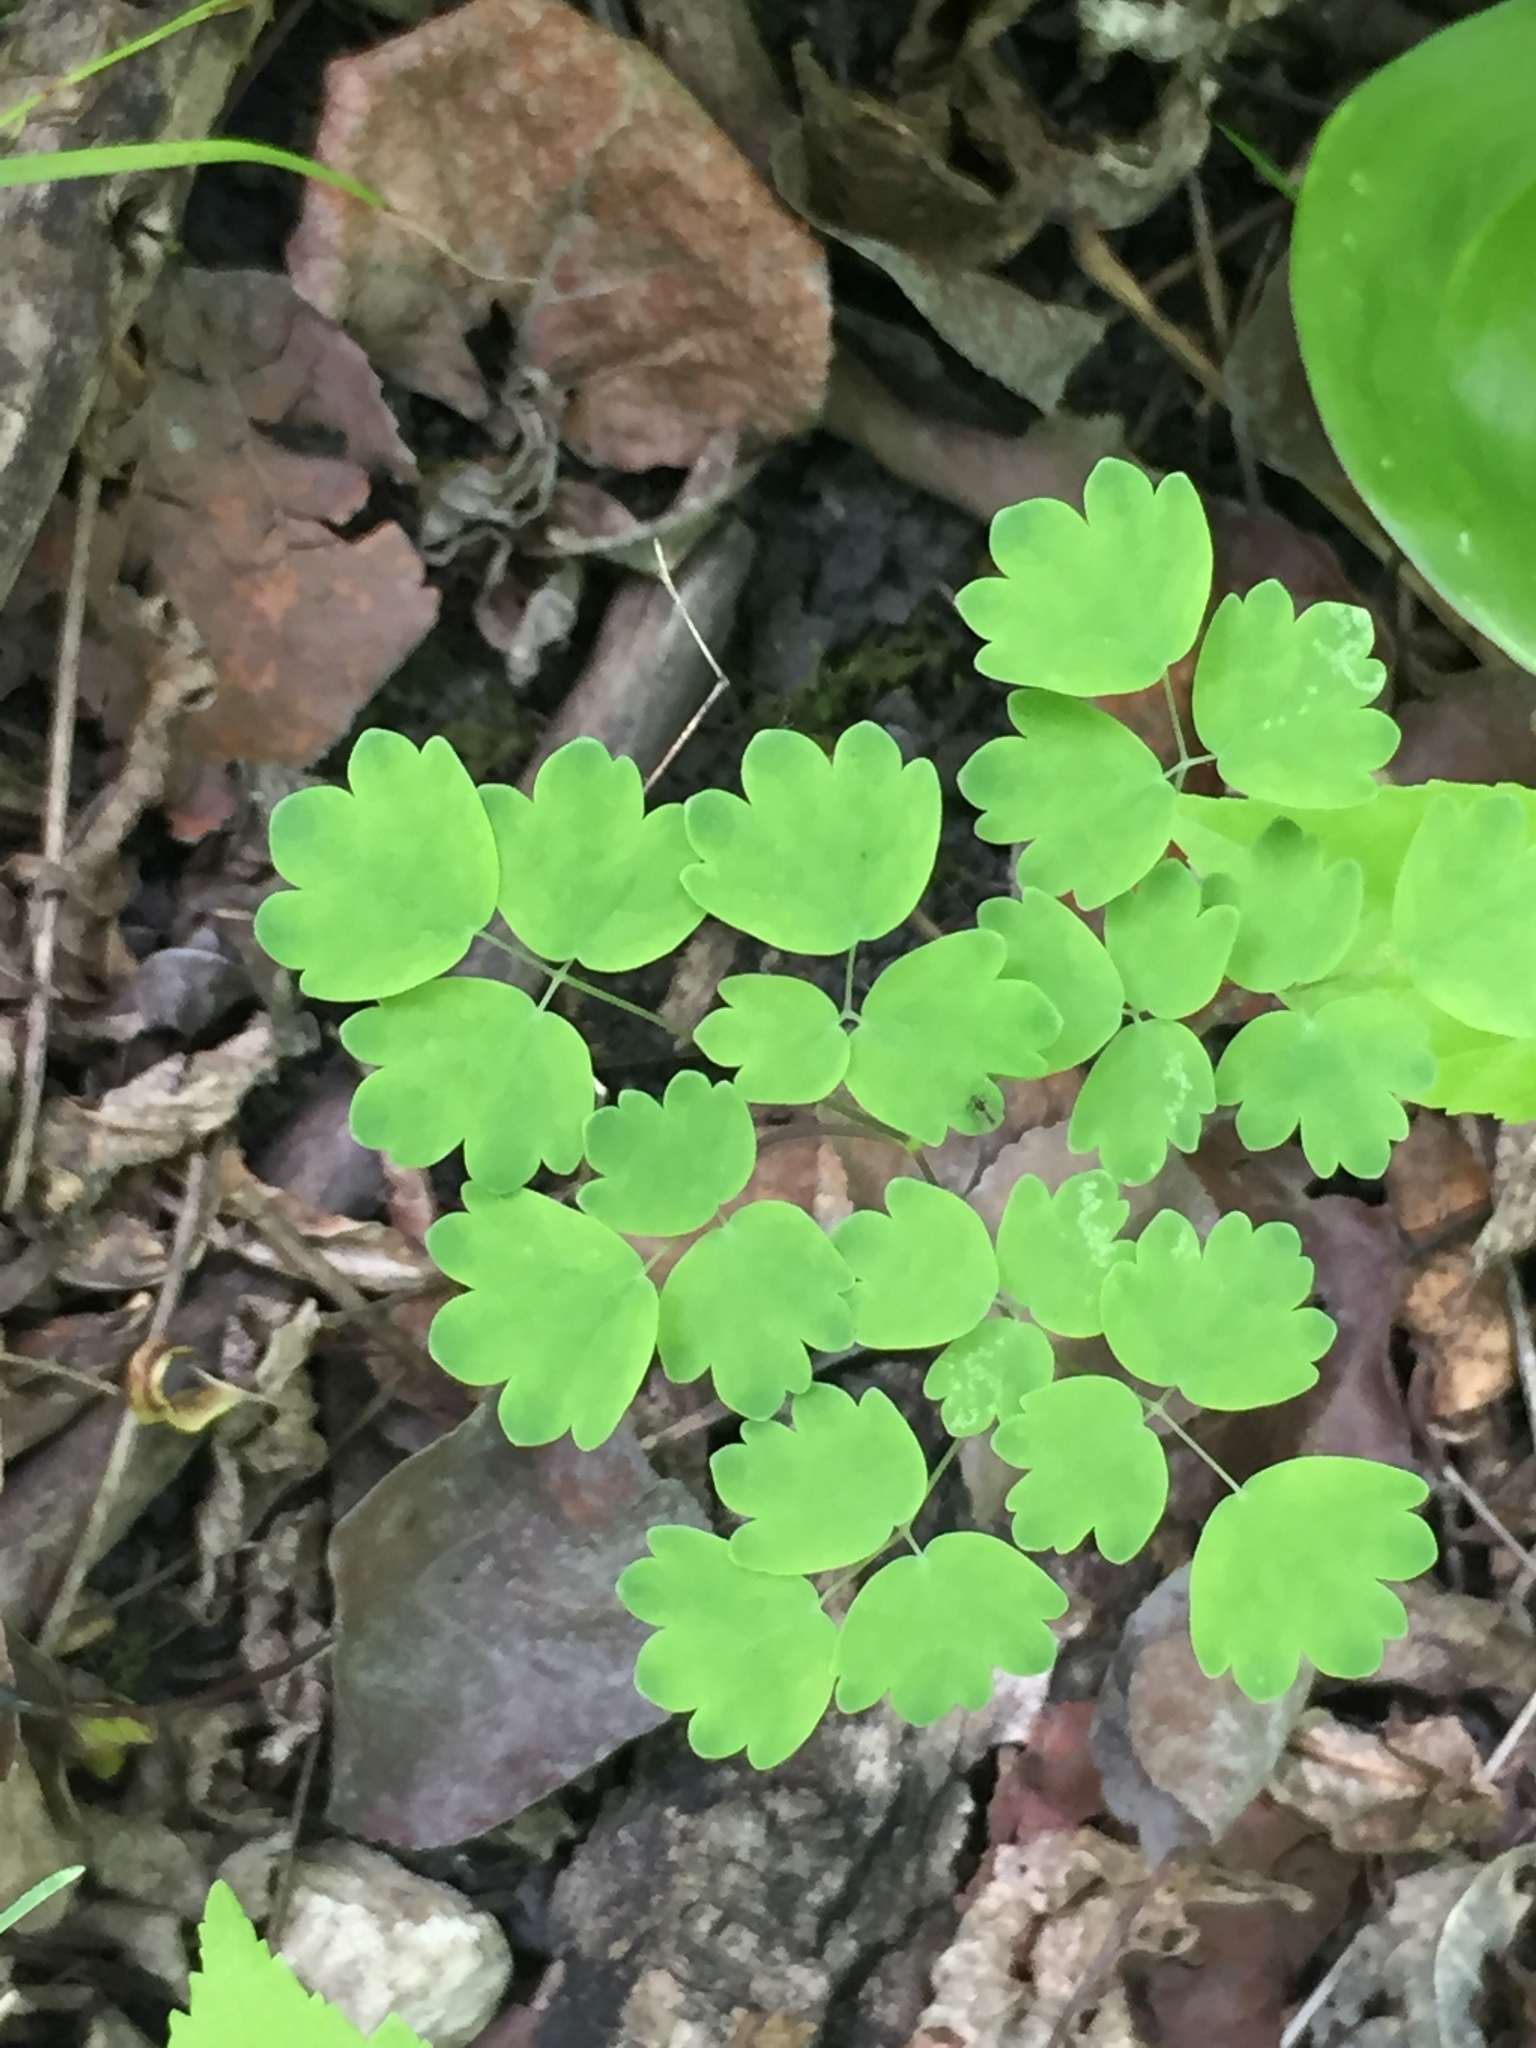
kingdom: Plantae
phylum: Tracheophyta
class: Magnoliopsida
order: Ranunculales
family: Ranunculaceae
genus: Thalictrum
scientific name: Thalictrum venulosum
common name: Early meadow-rue
